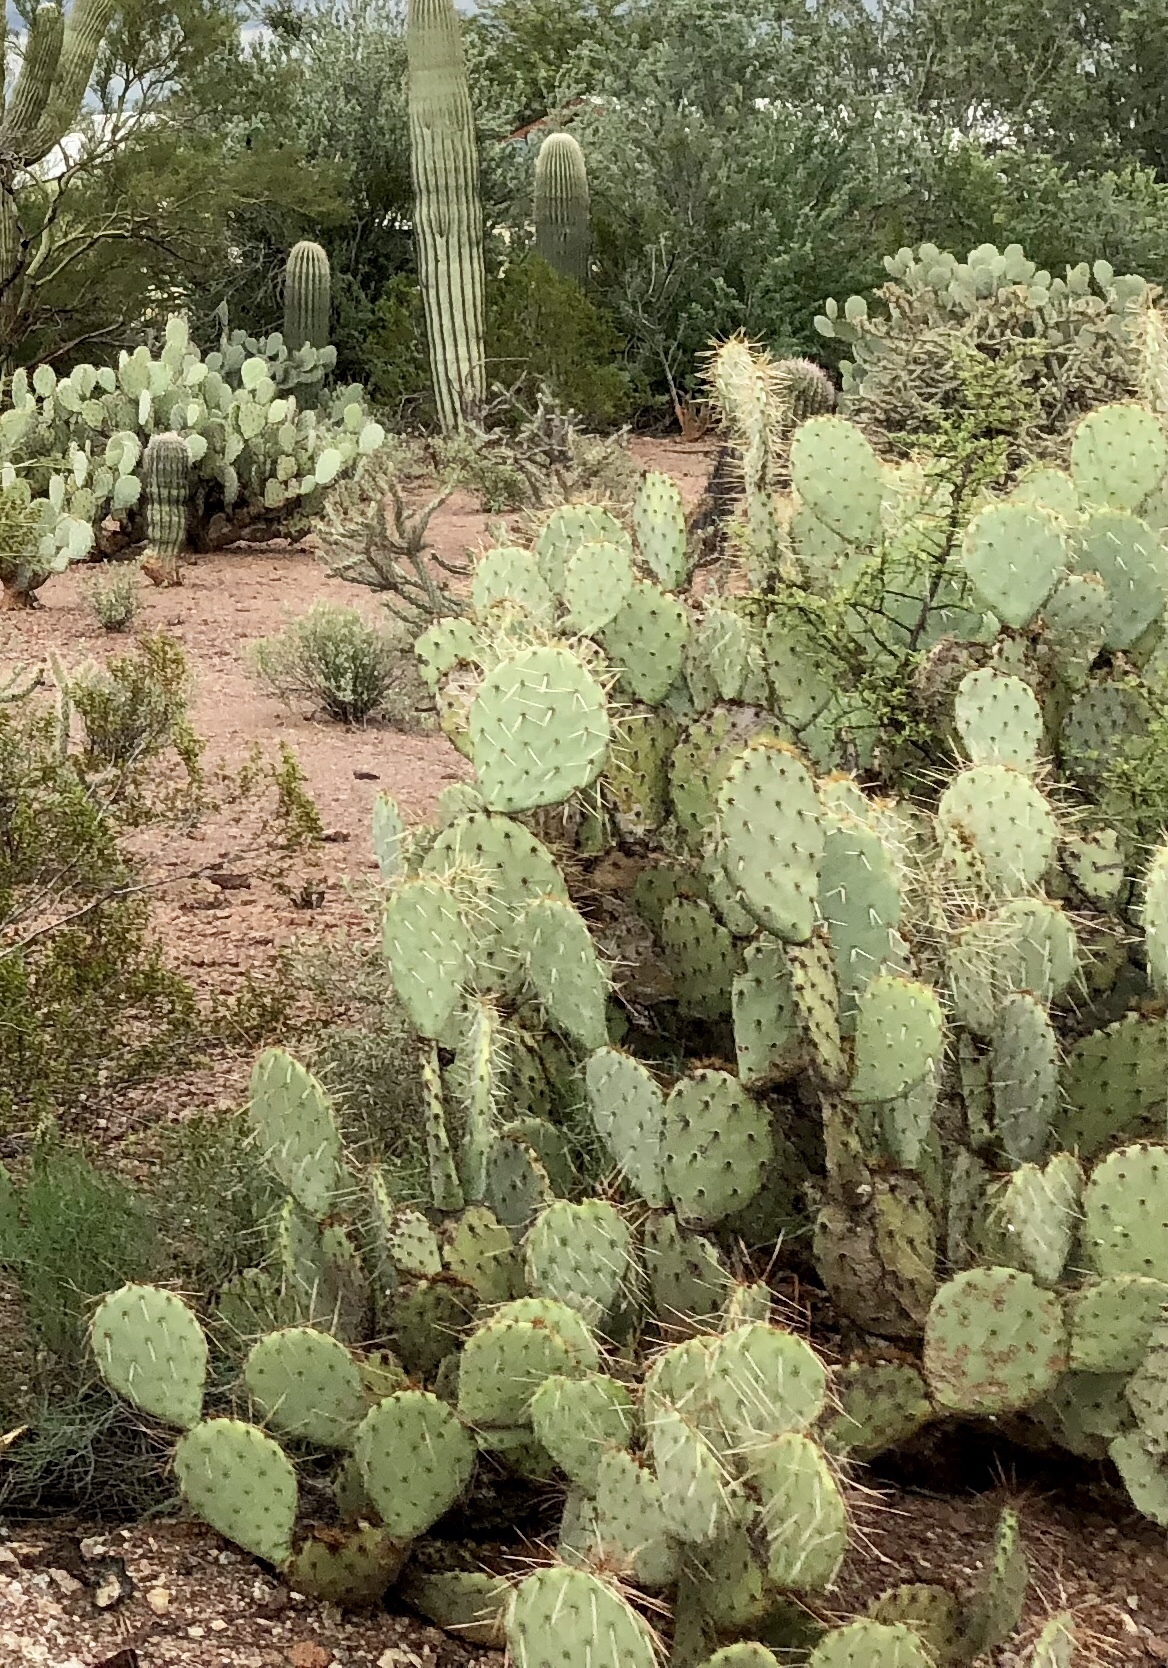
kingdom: Plantae
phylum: Tracheophyta
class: Magnoliopsida
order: Caryophyllales
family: Cactaceae
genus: Opuntia
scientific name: Opuntia engelmannii
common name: Cactus-apple
